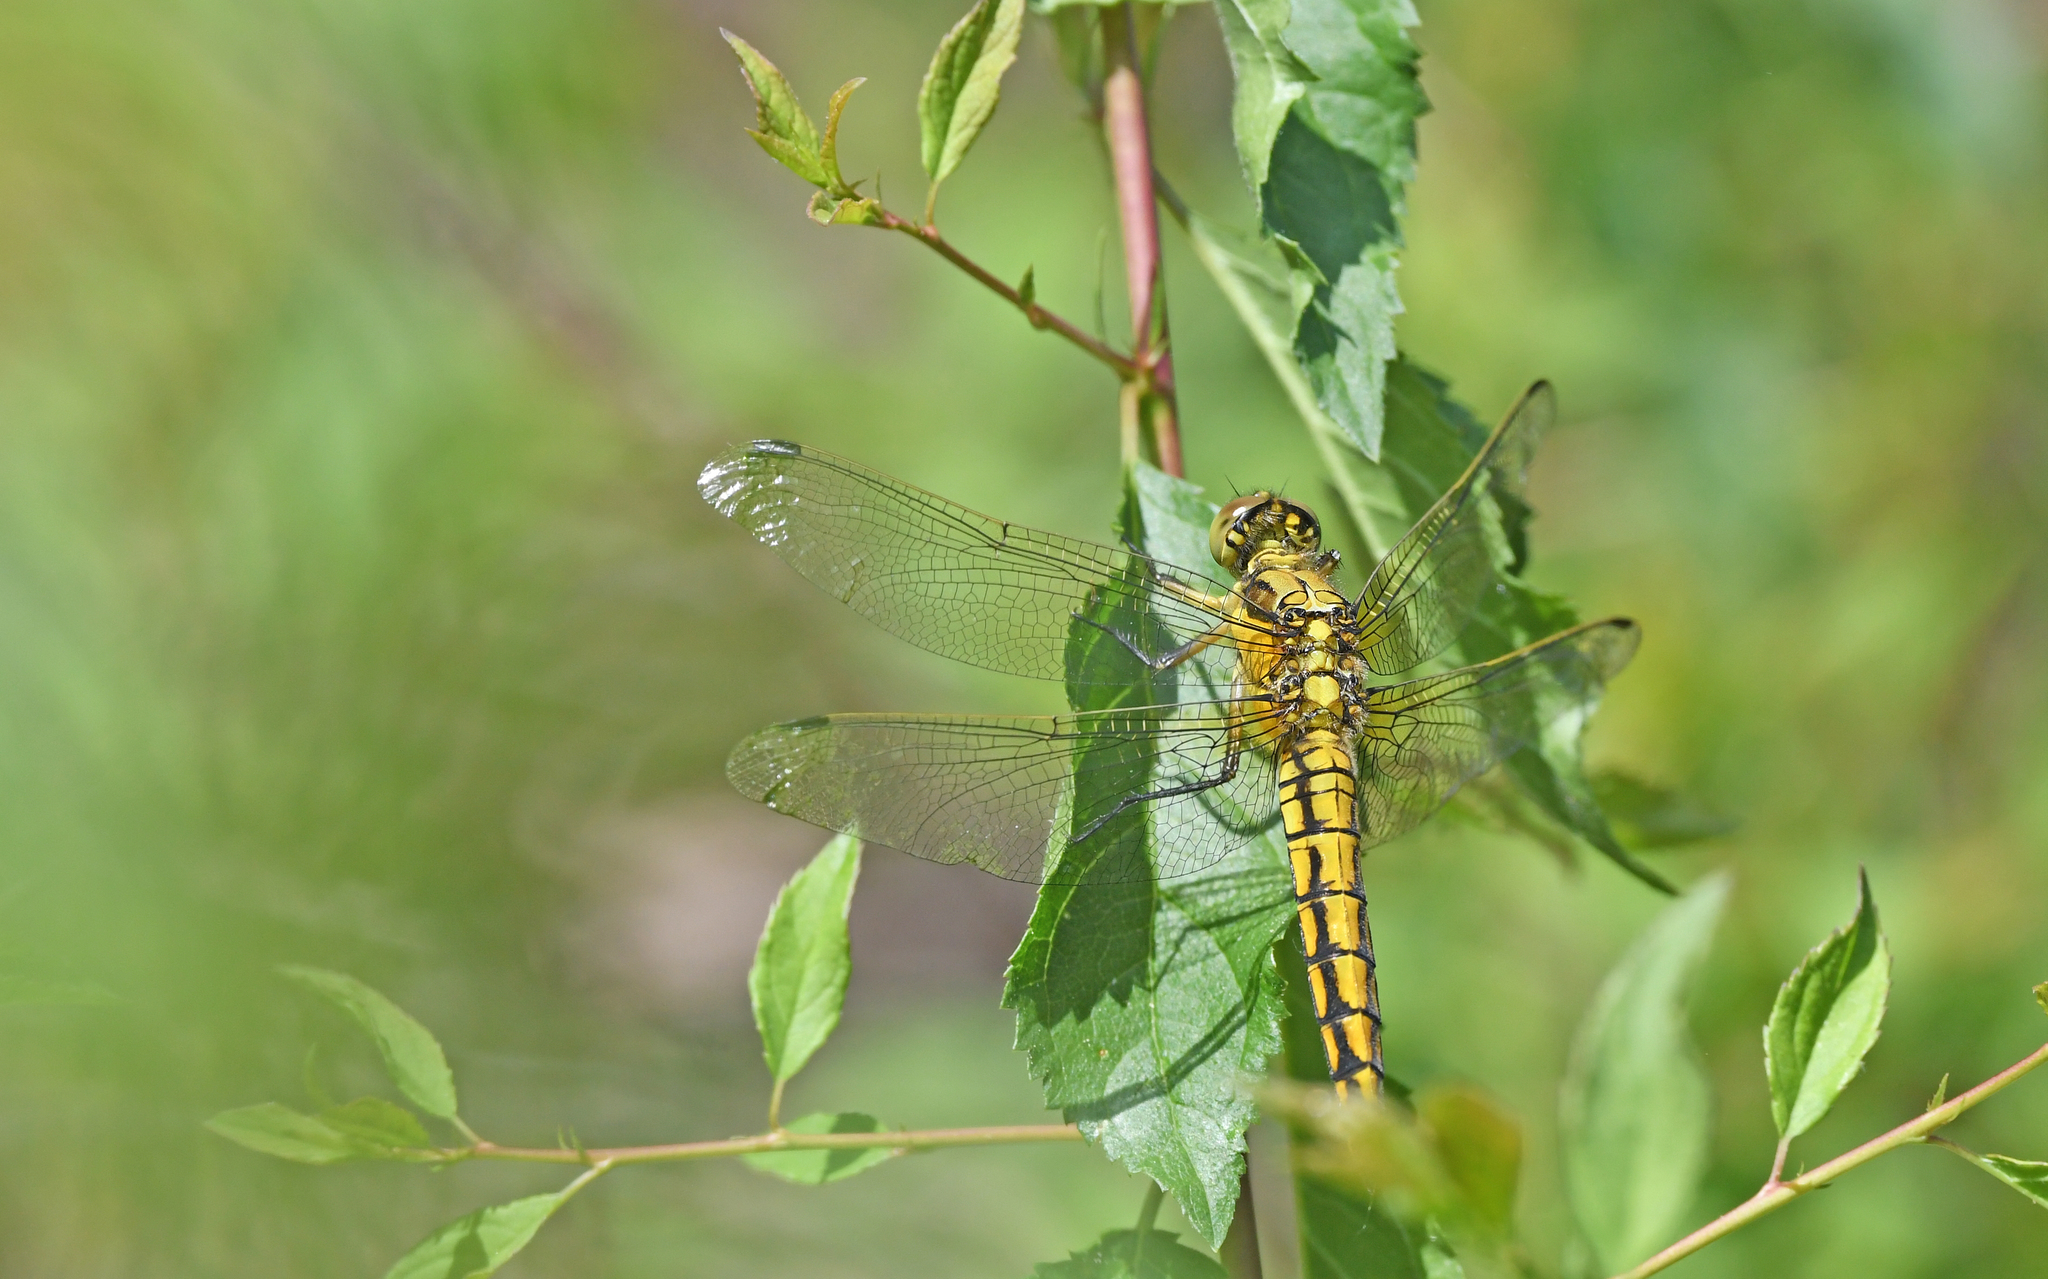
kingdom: Animalia
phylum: Arthropoda
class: Insecta
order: Odonata
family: Libellulidae
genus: Orthetrum
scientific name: Orthetrum cancellatum
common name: Black-tailed skimmer
